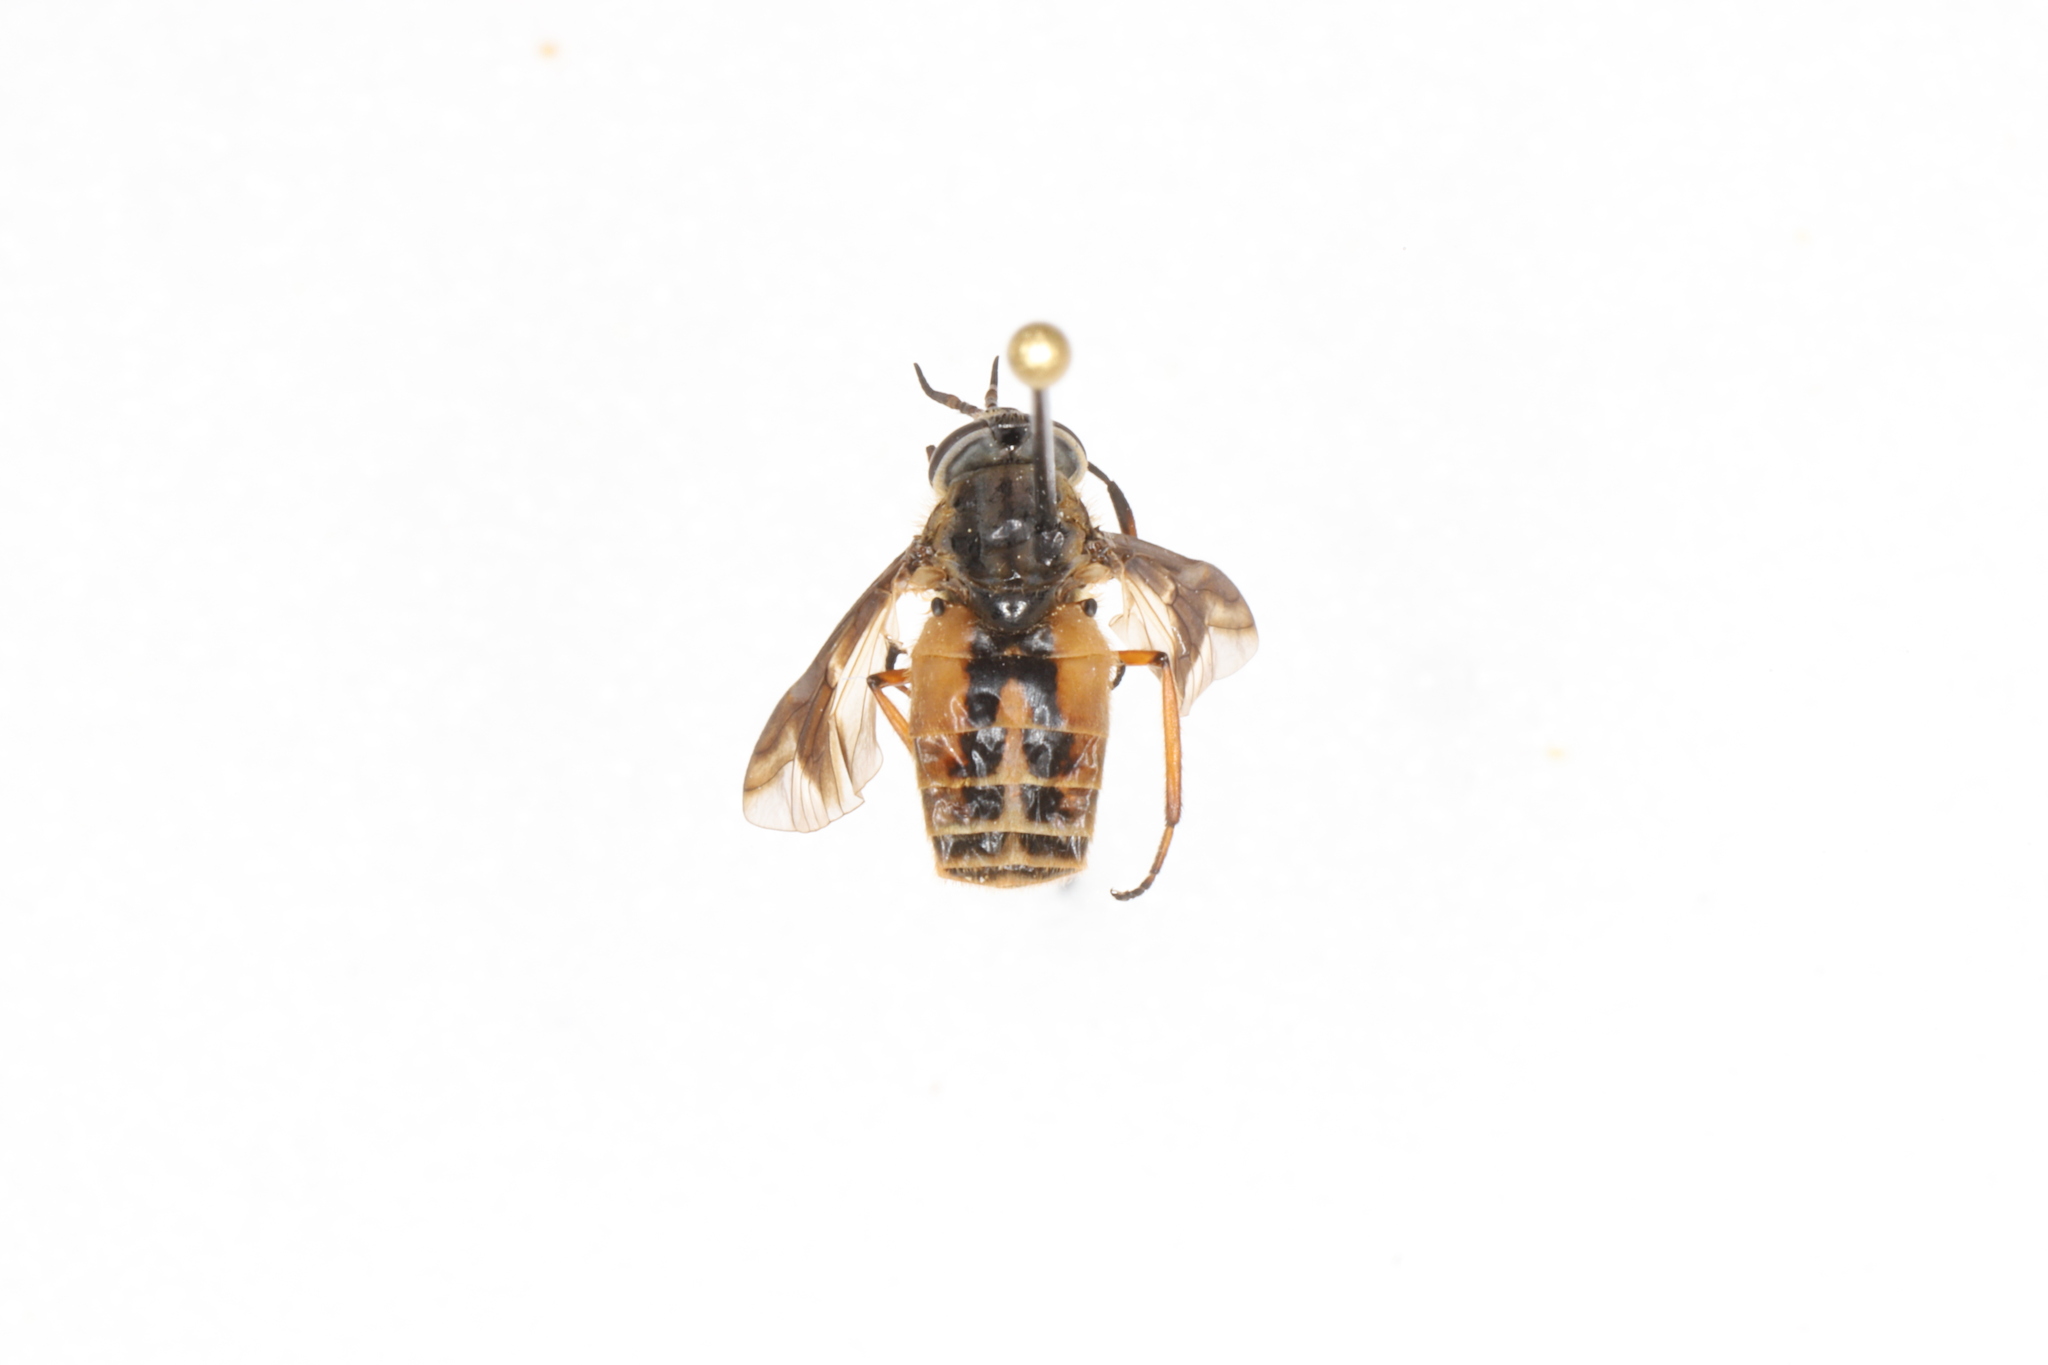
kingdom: Animalia
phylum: Arthropoda
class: Insecta
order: Diptera
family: Tabanidae
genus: Chrysops
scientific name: Chrysops indus
